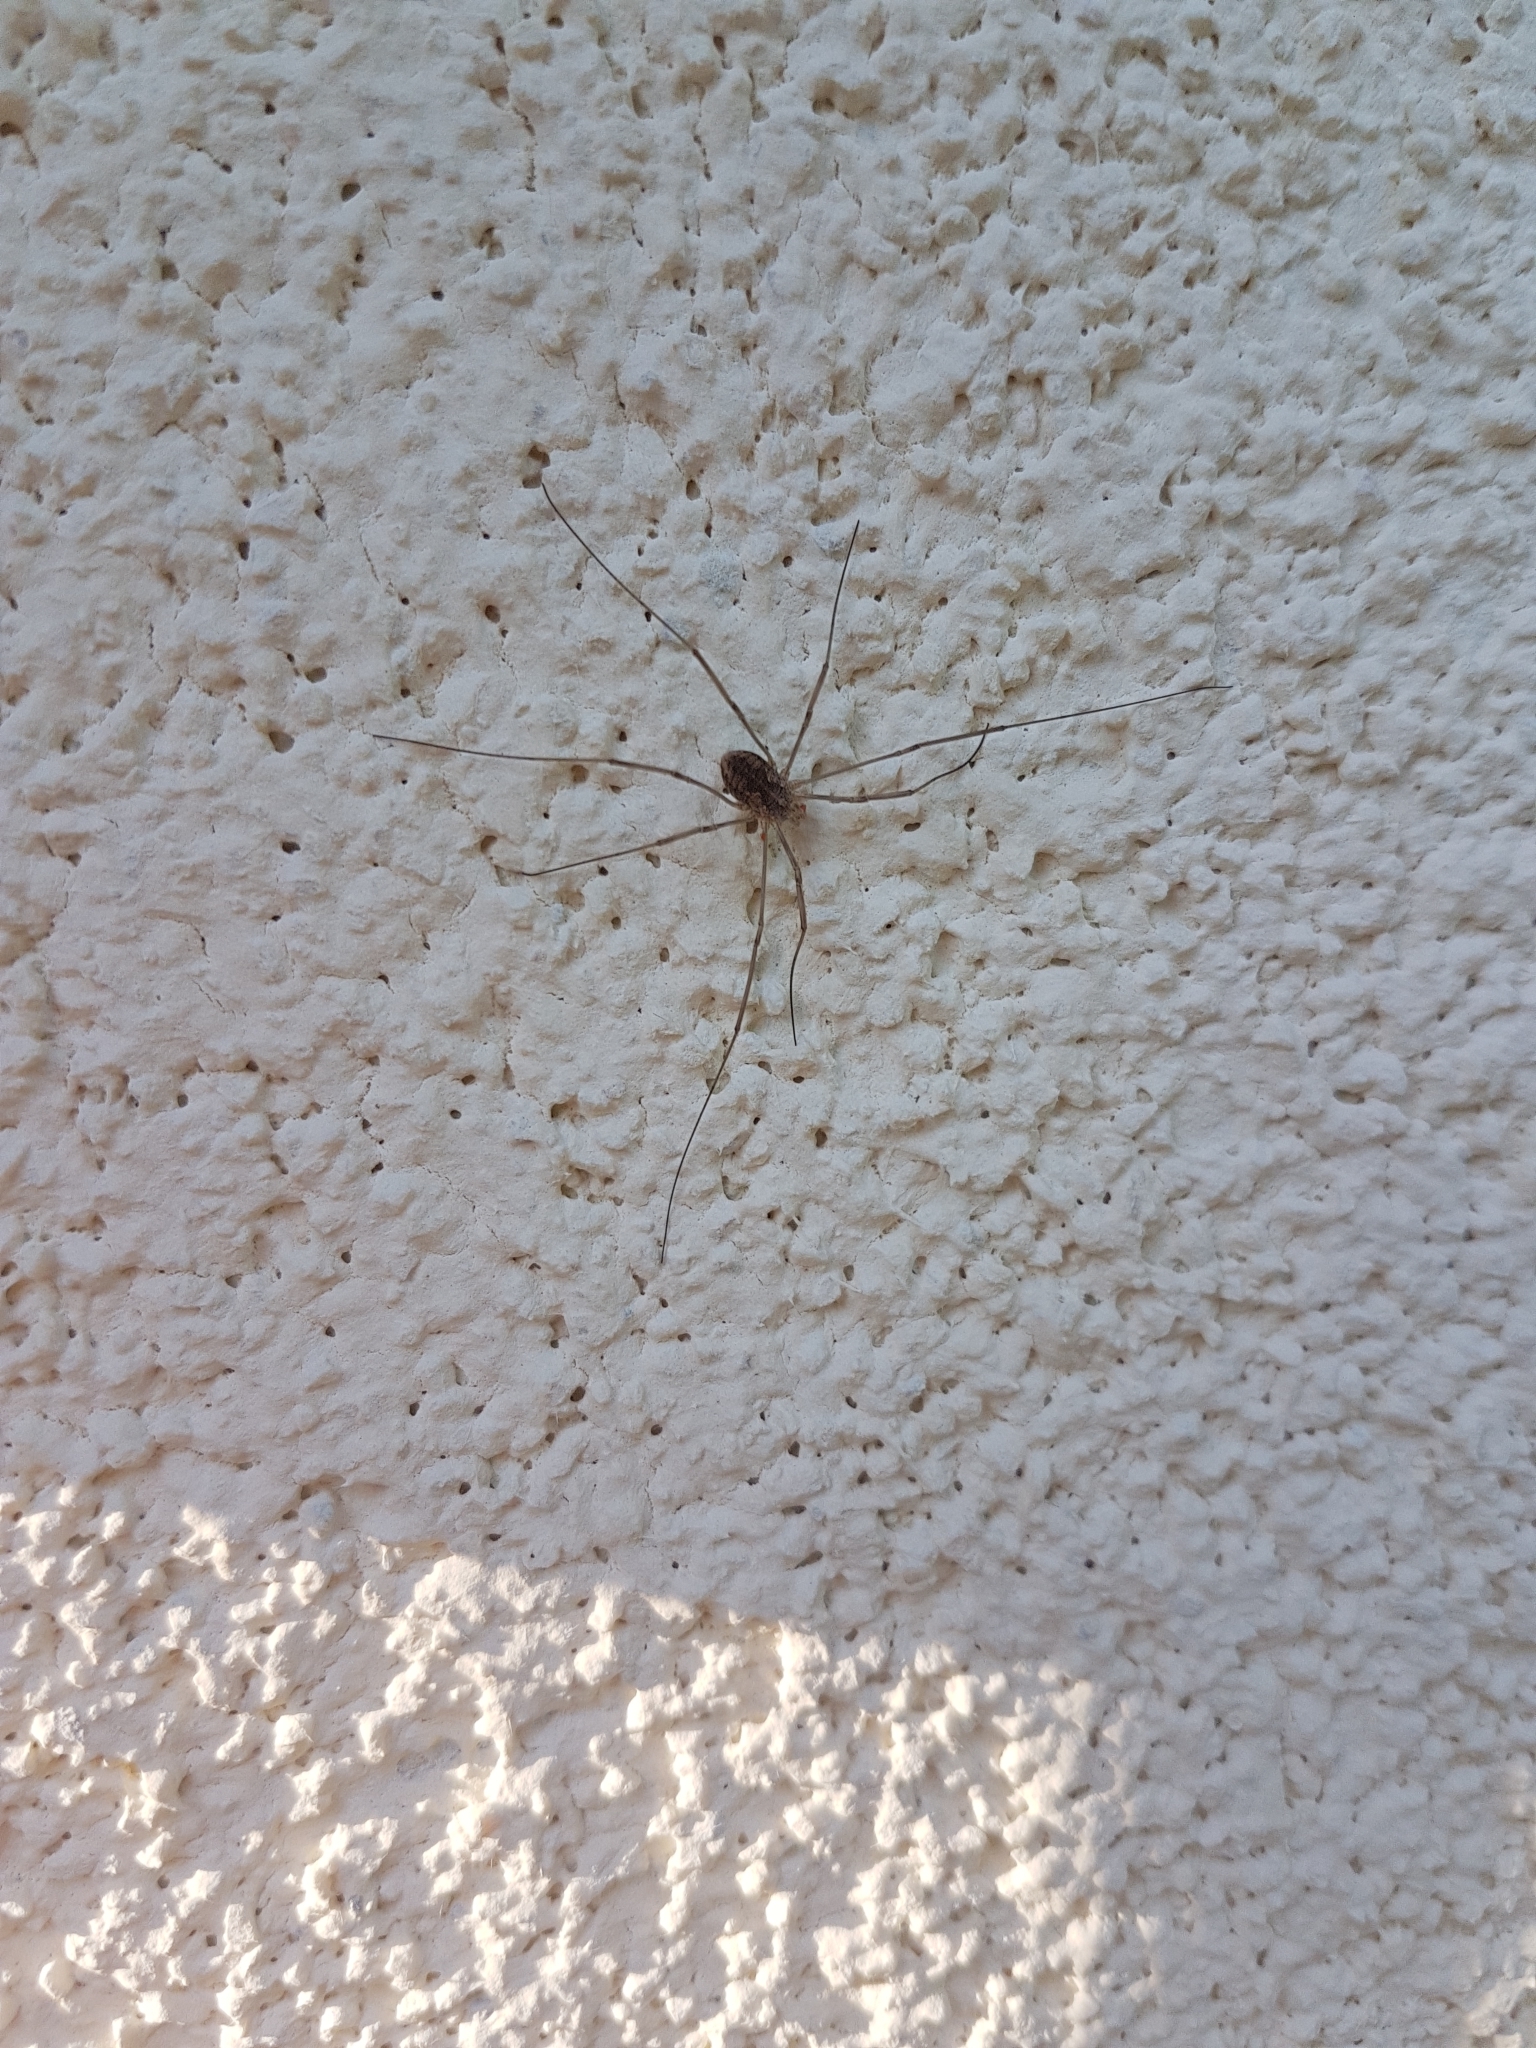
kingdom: Animalia
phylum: Arthropoda
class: Arachnida
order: Opiliones
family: Phalangiidae
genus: Phalangium
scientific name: Phalangium opilio
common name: Daddy longleg
